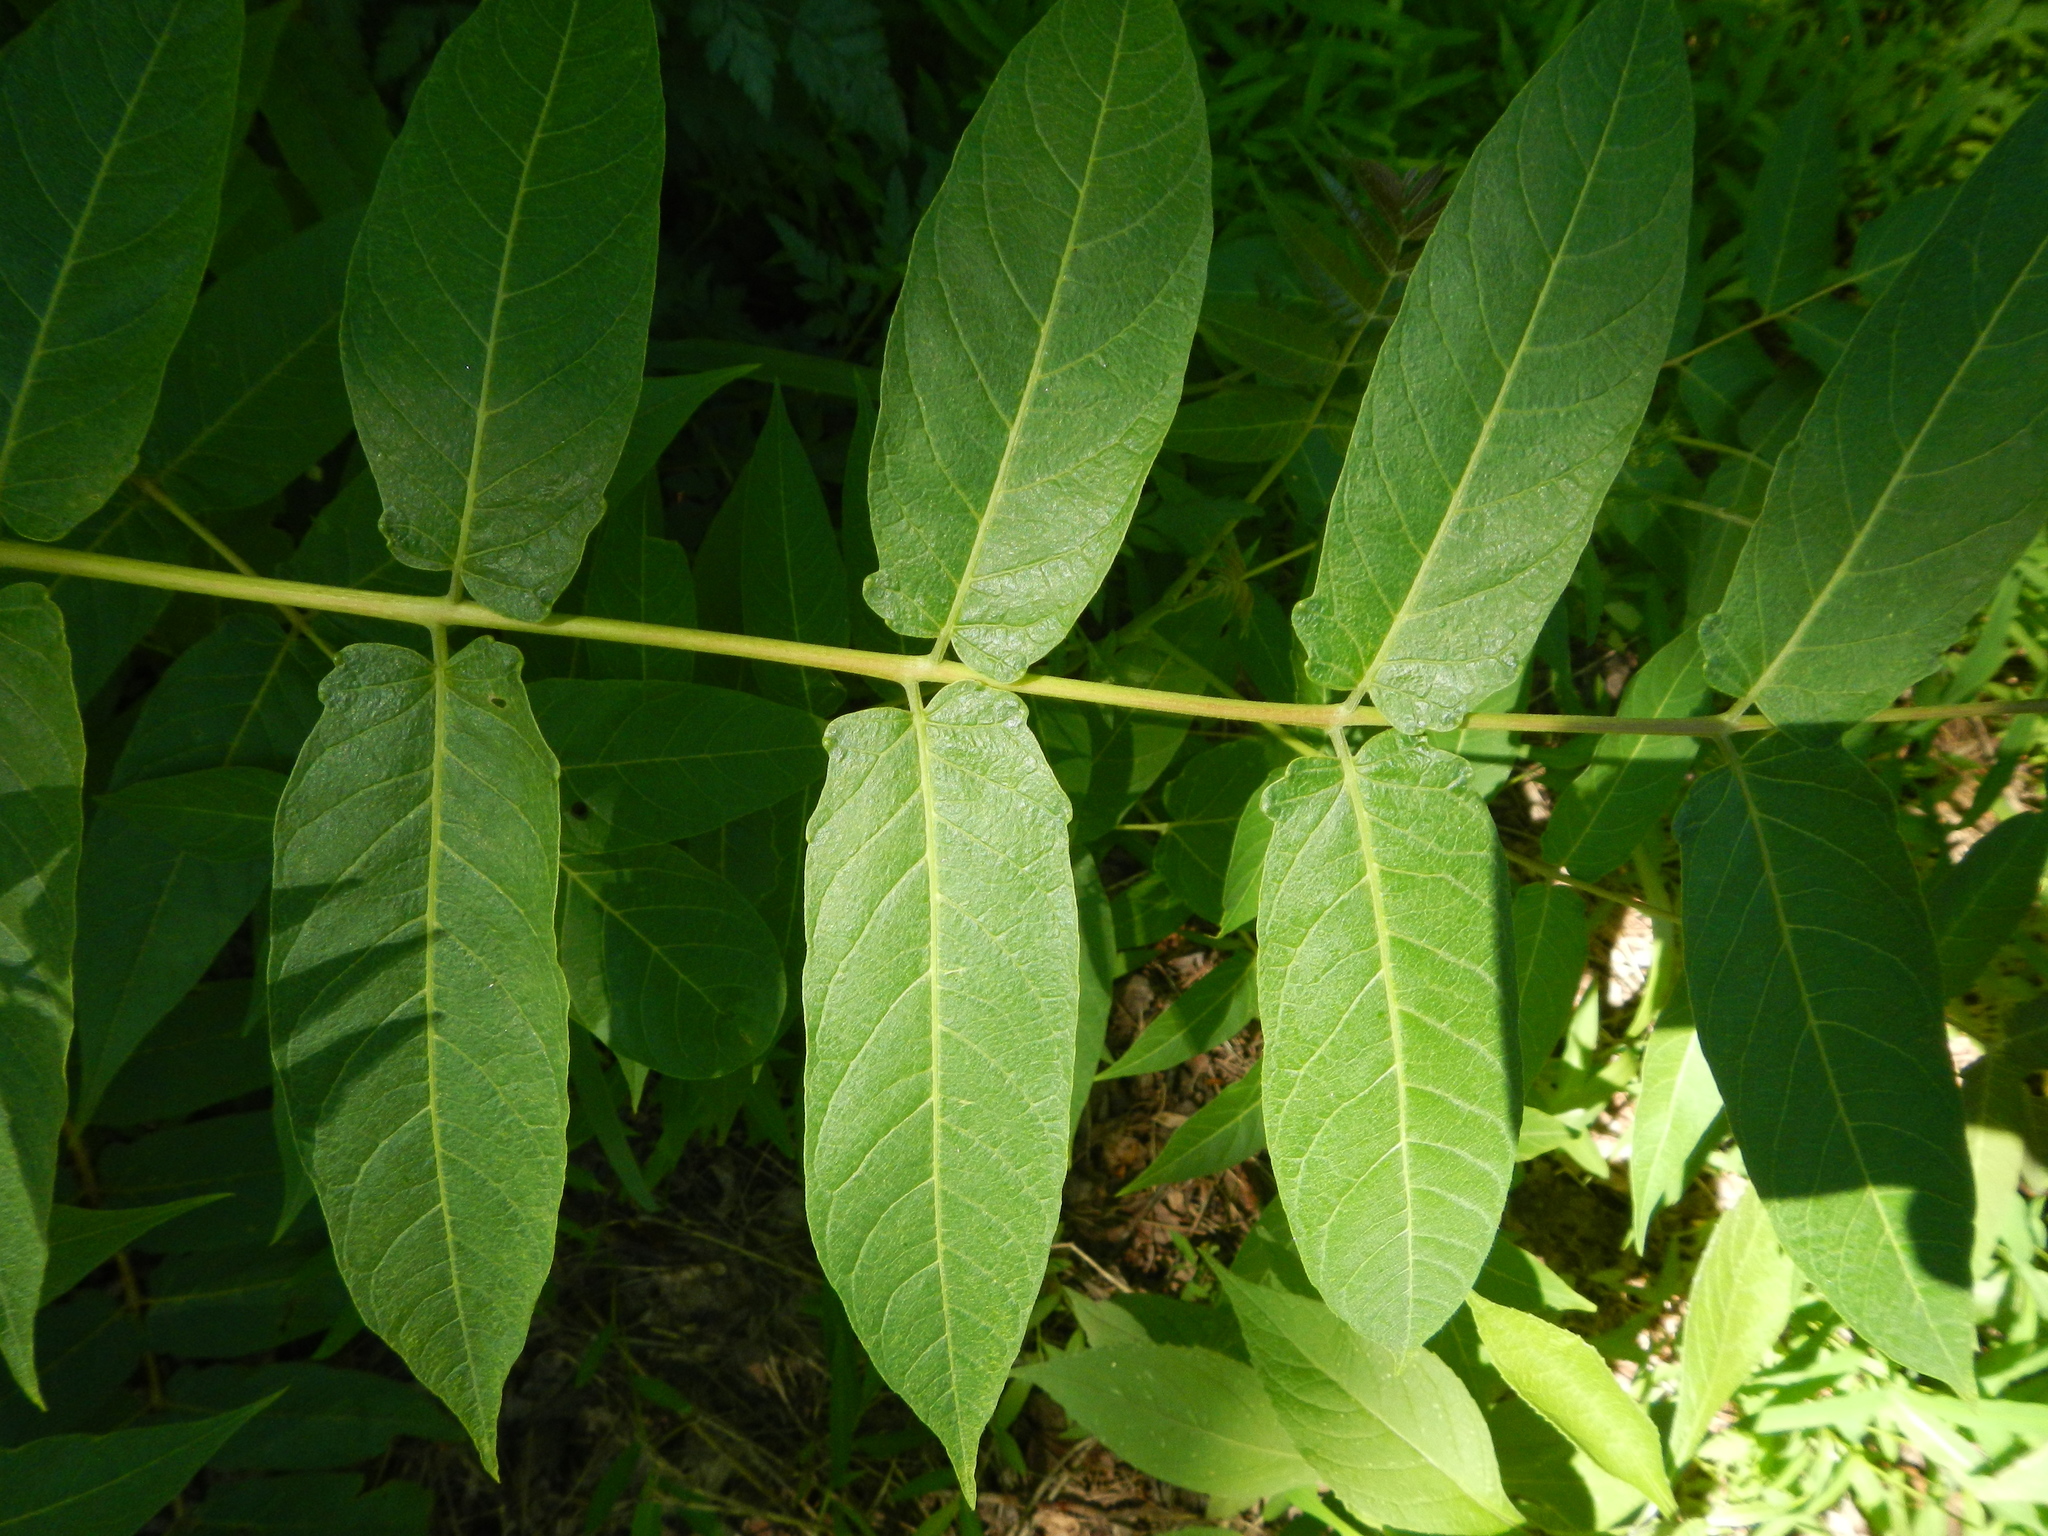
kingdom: Plantae
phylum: Tracheophyta
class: Magnoliopsida
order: Sapindales
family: Simaroubaceae
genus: Ailanthus
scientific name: Ailanthus altissima
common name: Tree-of-heaven
